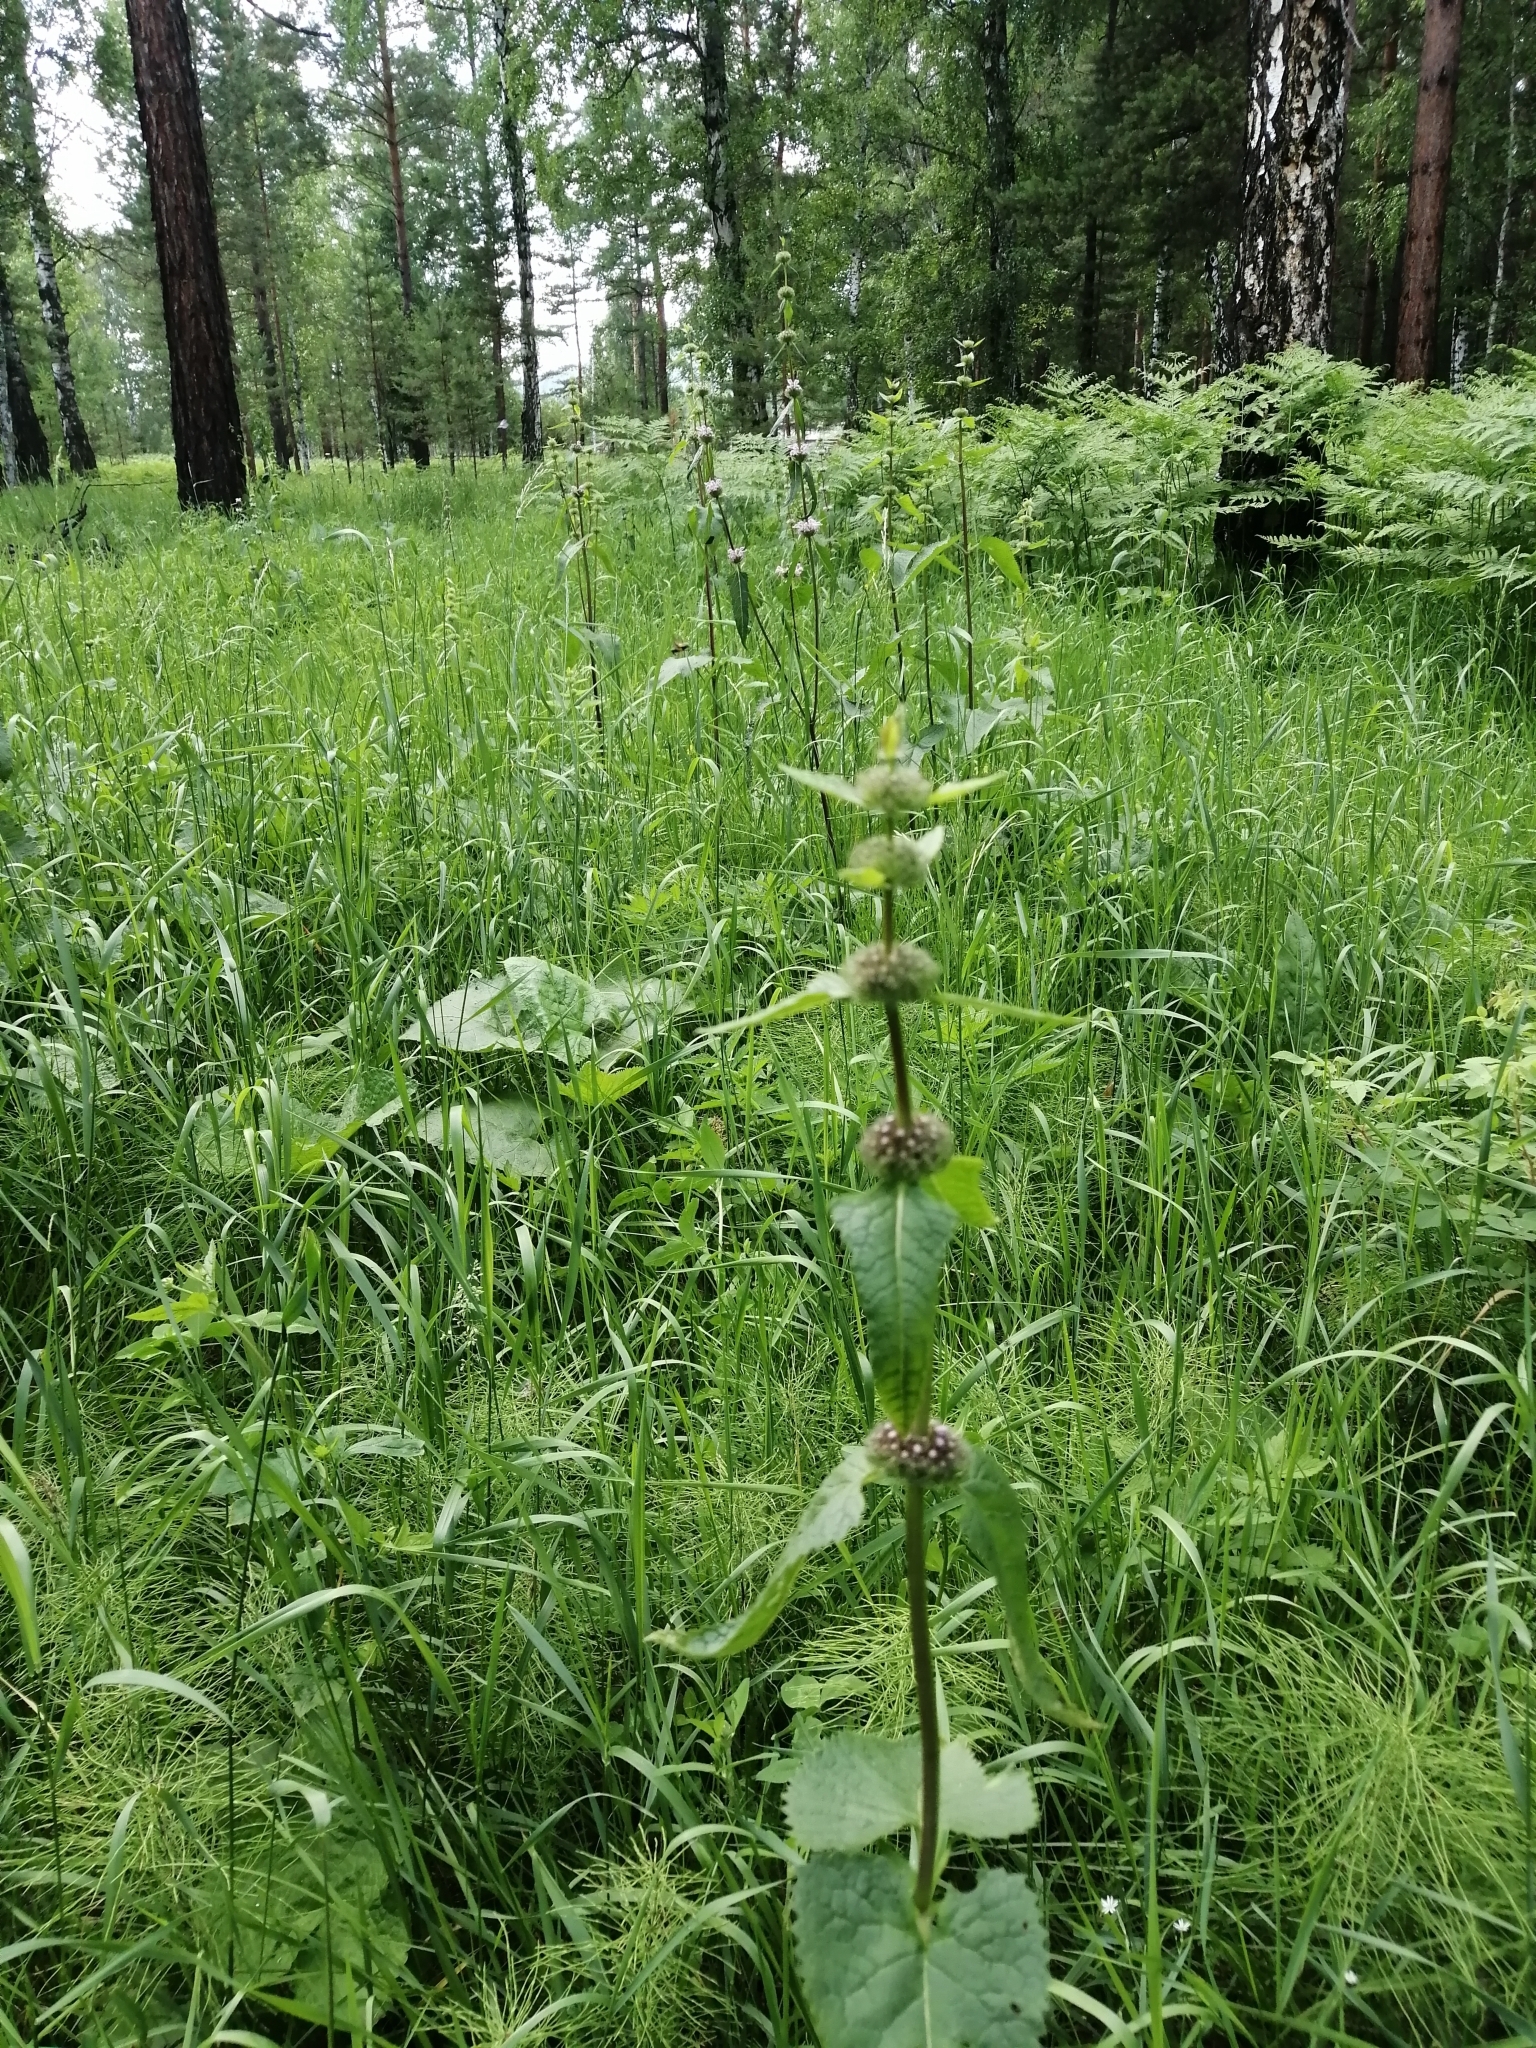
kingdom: Plantae
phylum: Tracheophyta
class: Magnoliopsida
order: Lamiales
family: Lamiaceae
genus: Phlomoides
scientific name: Phlomoides tuberosa
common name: Tuberous jerusalem sage
